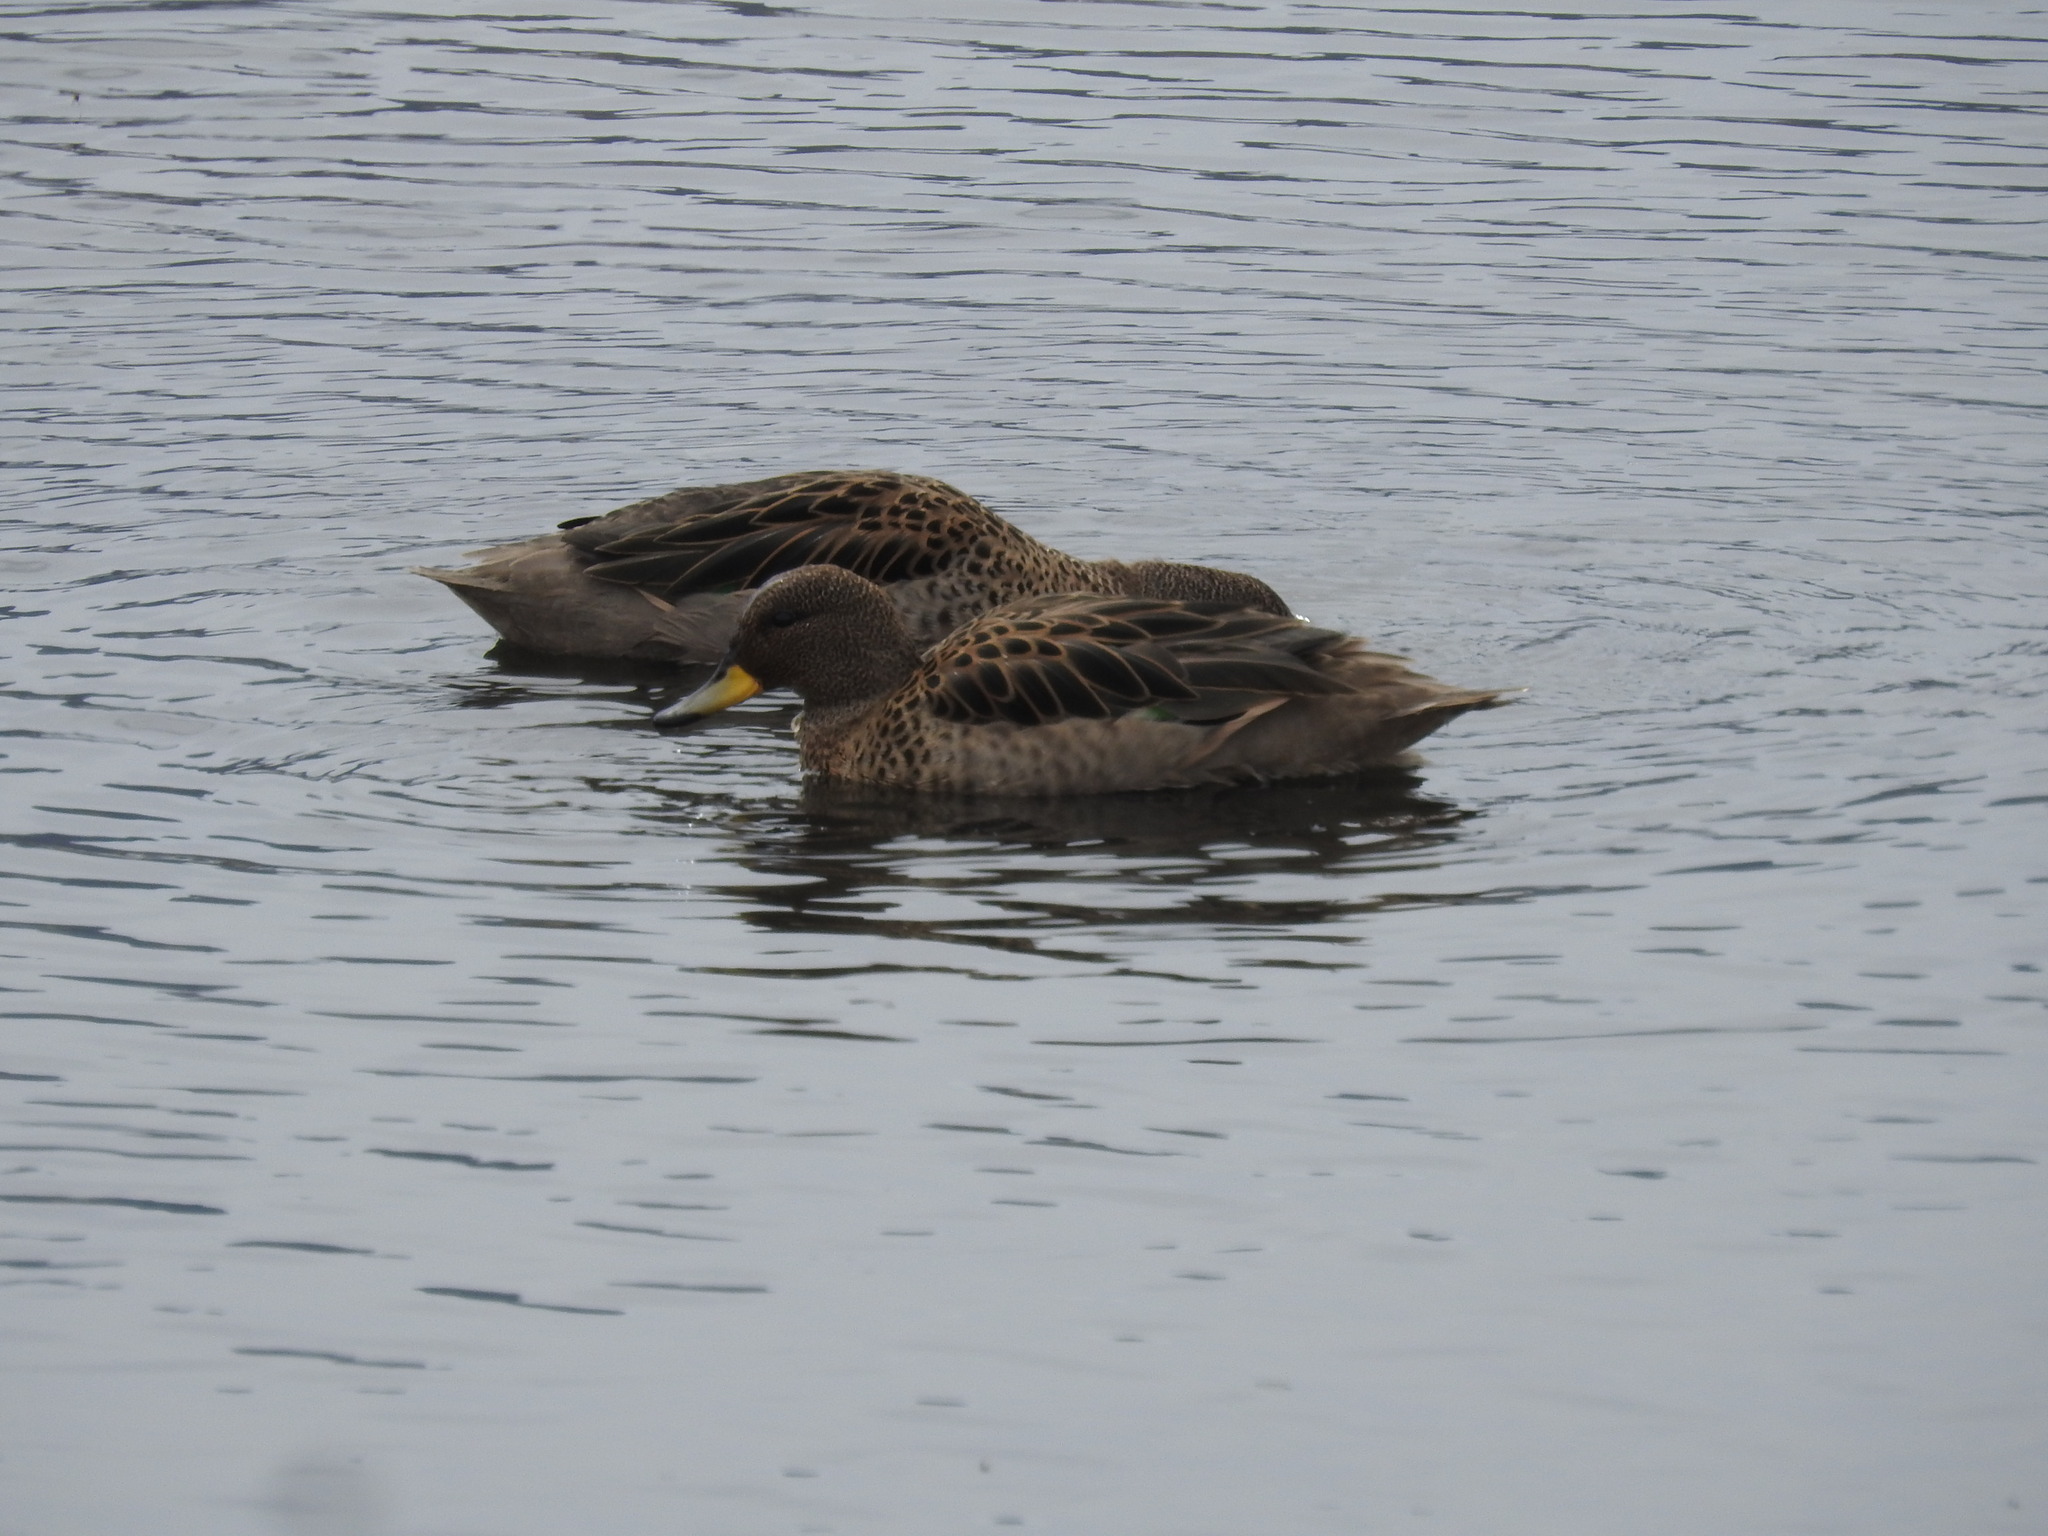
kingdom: Animalia
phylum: Chordata
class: Aves
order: Anseriformes
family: Anatidae
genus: Anas
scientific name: Anas flavirostris
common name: Yellow-billed teal
